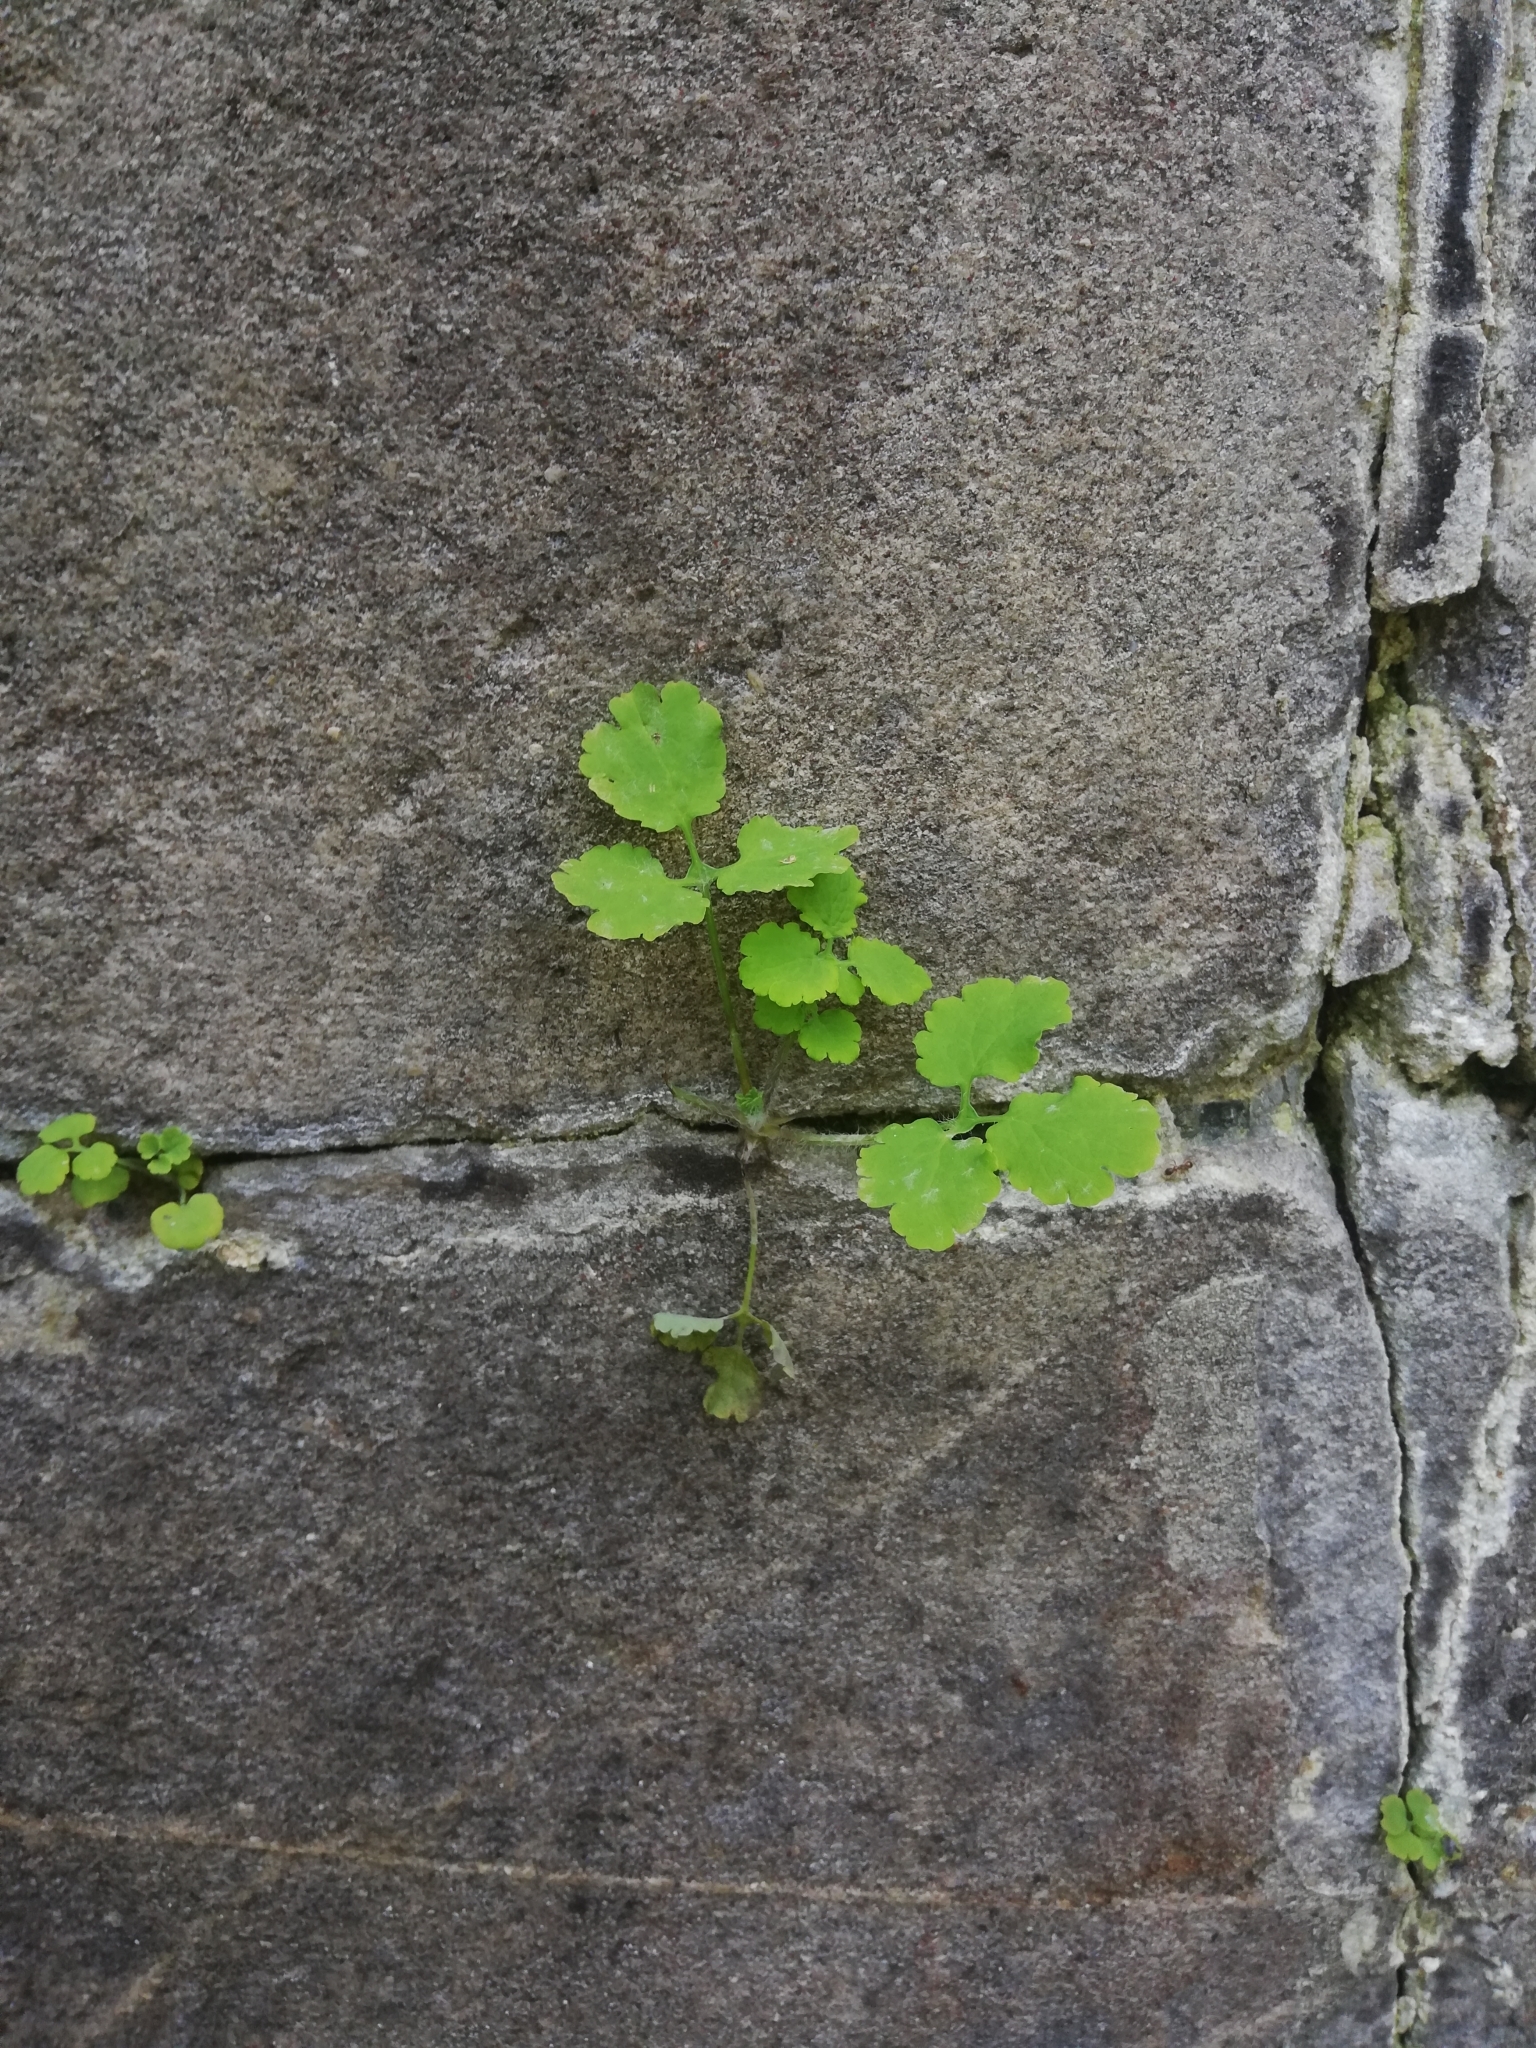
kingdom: Plantae
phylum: Tracheophyta
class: Magnoliopsida
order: Ranunculales
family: Papaveraceae
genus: Chelidonium
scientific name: Chelidonium majus
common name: Greater celandine
